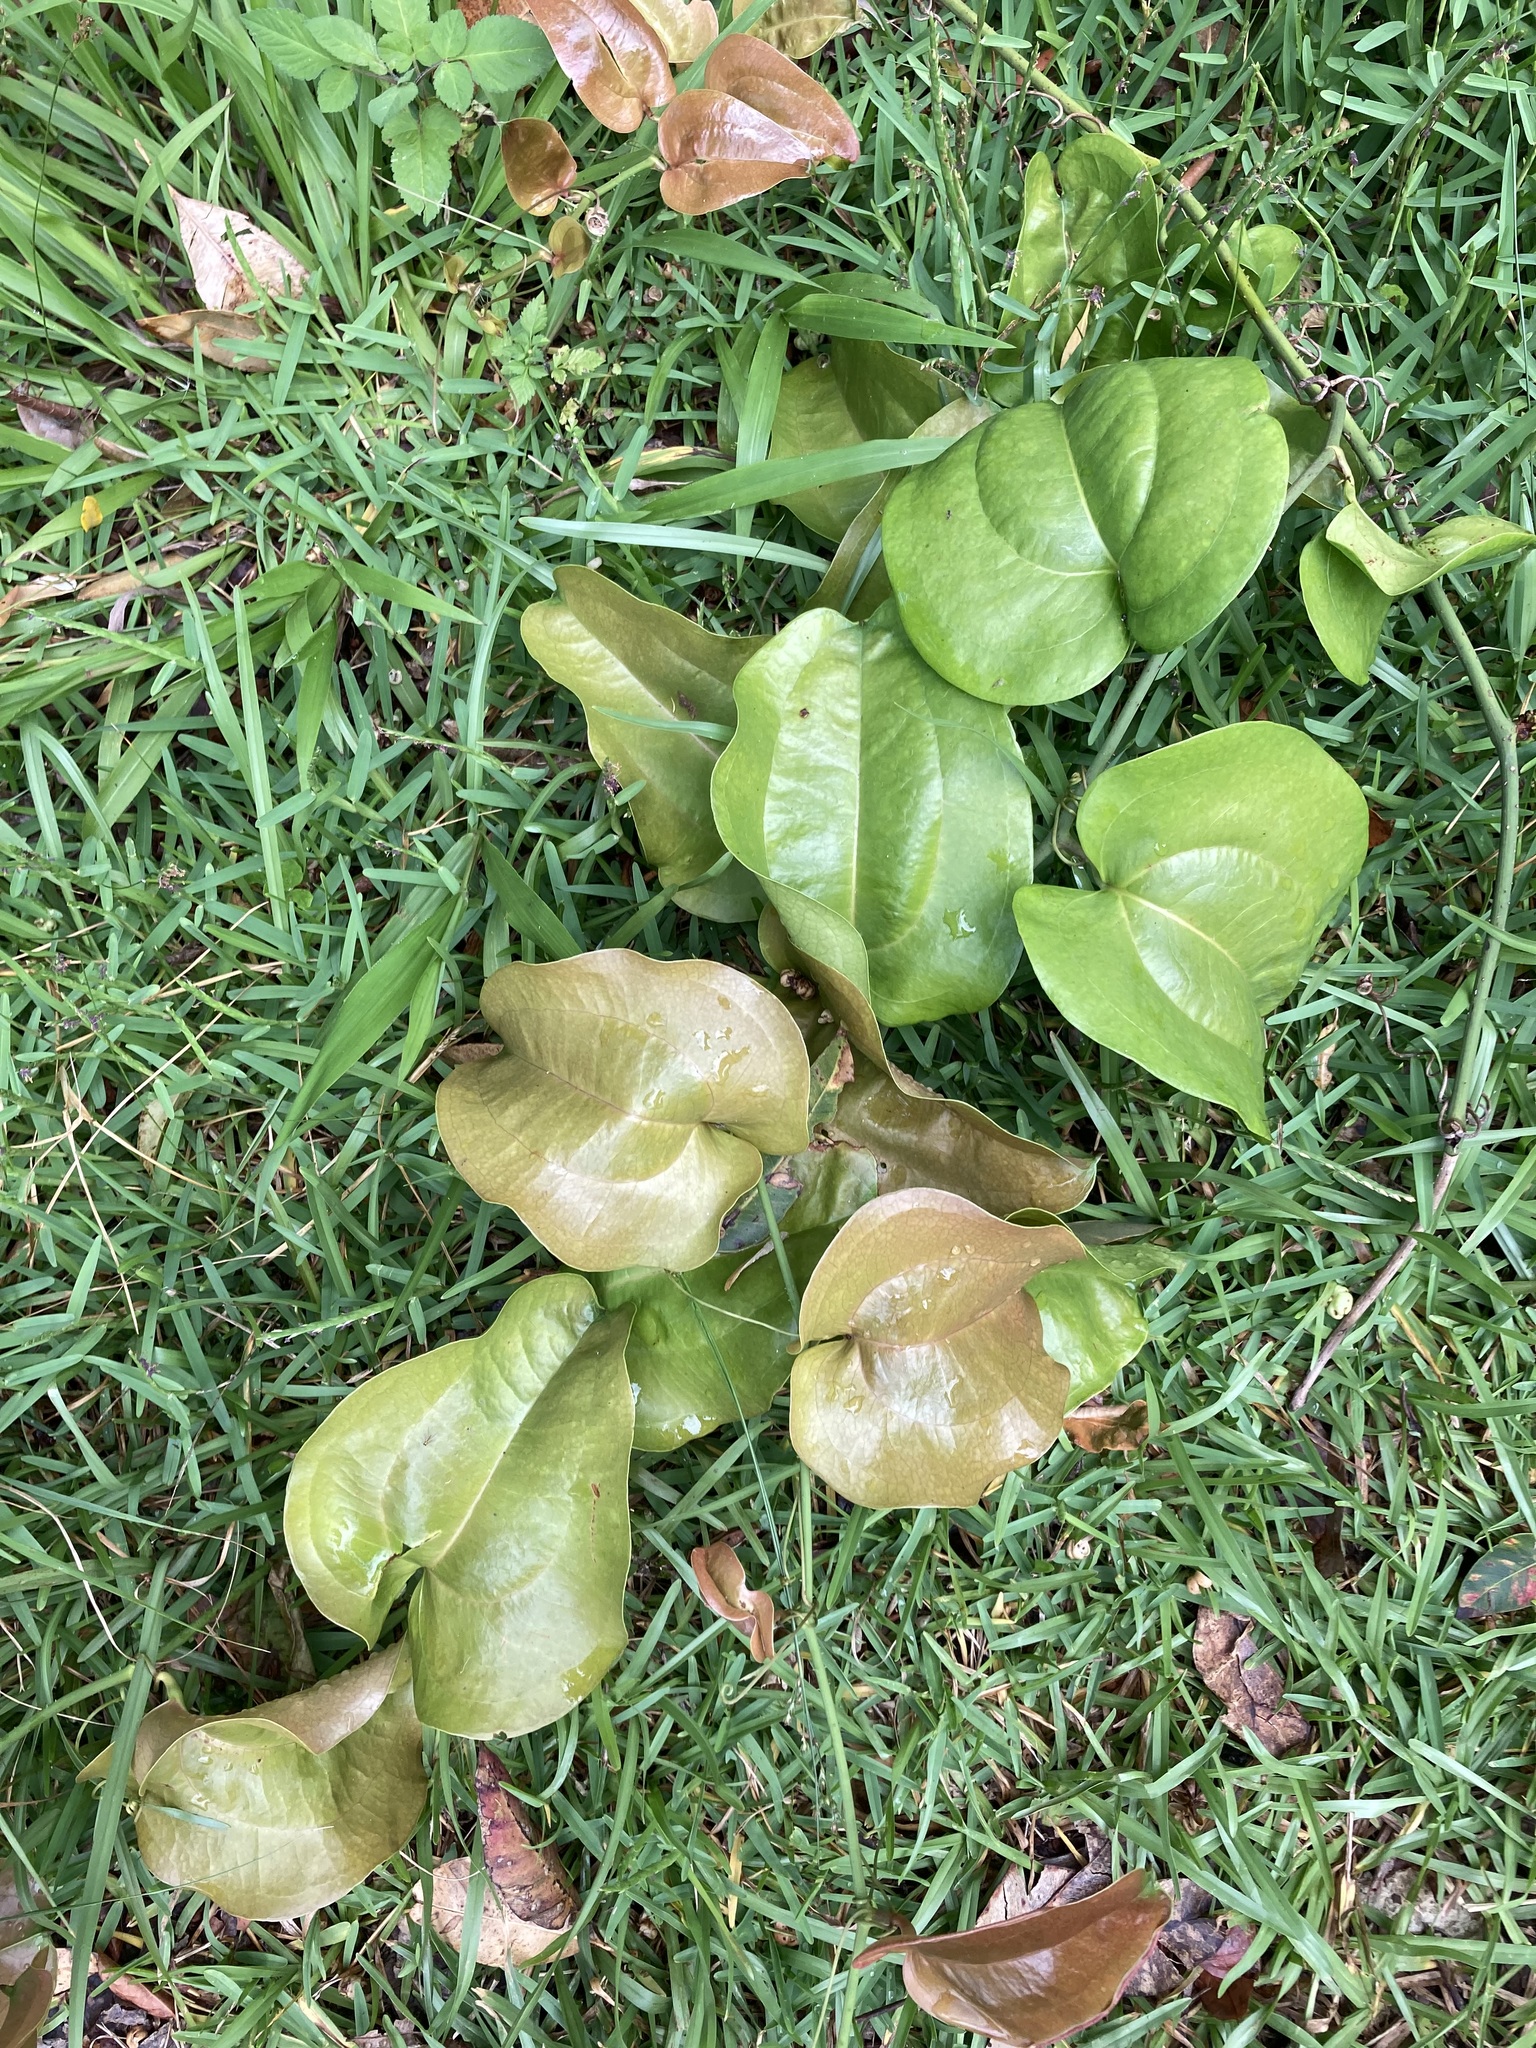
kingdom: Plantae
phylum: Tracheophyta
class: Liliopsida
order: Liliales
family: Smilacaceae
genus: Smilax
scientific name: Smilax australis
